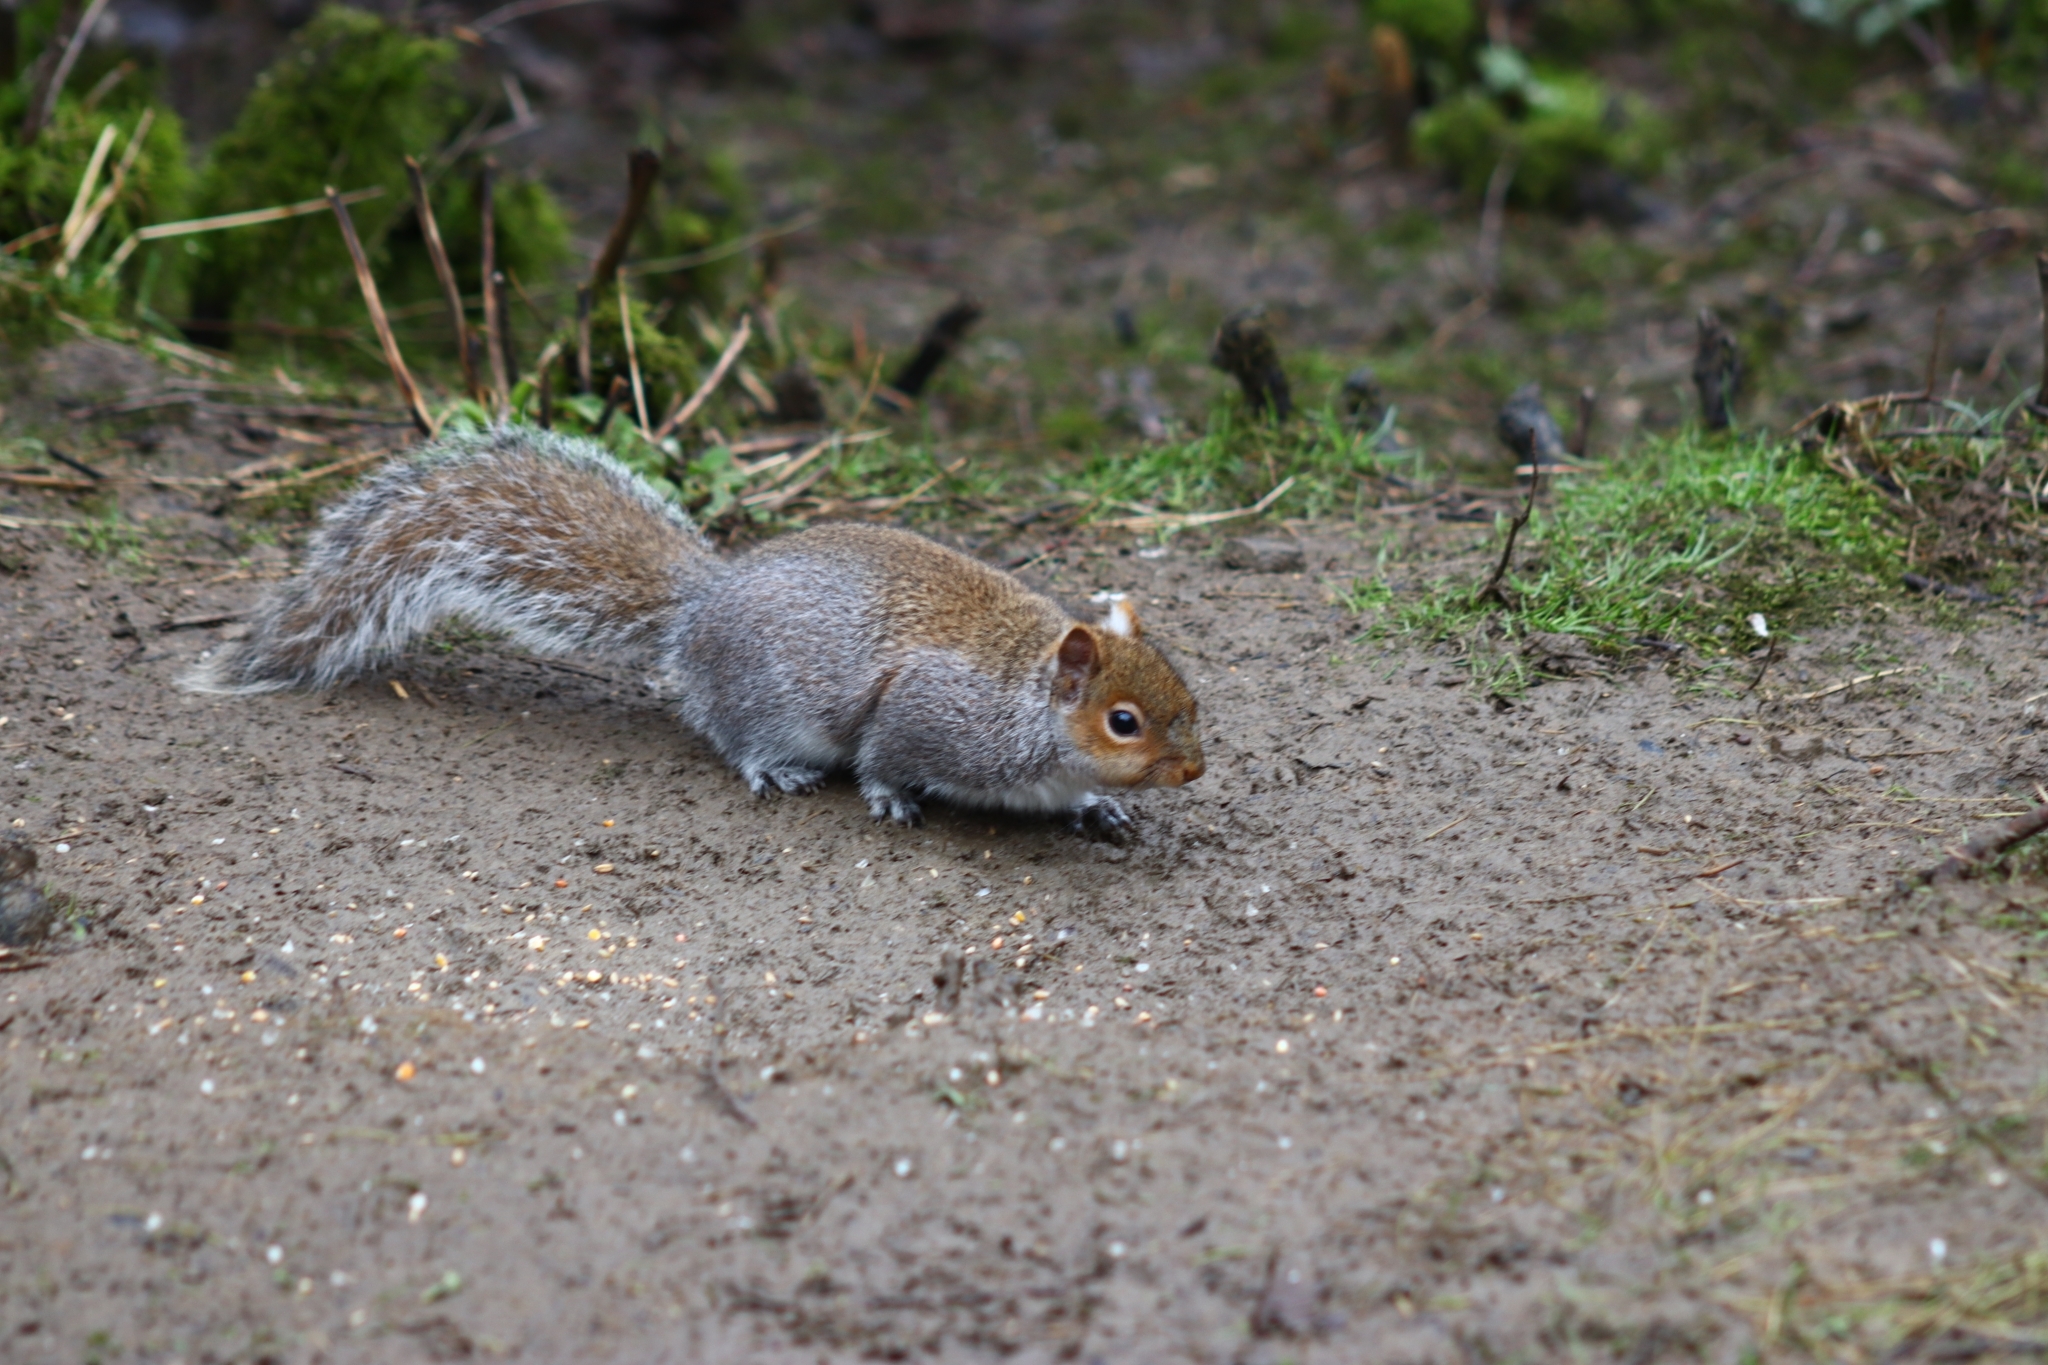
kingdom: Animalia
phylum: Chordata
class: Mammalia
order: Rodentia
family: Sciuridae
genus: Sciurus
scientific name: Sciurus carolinensis
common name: Eastern gray squirrel
